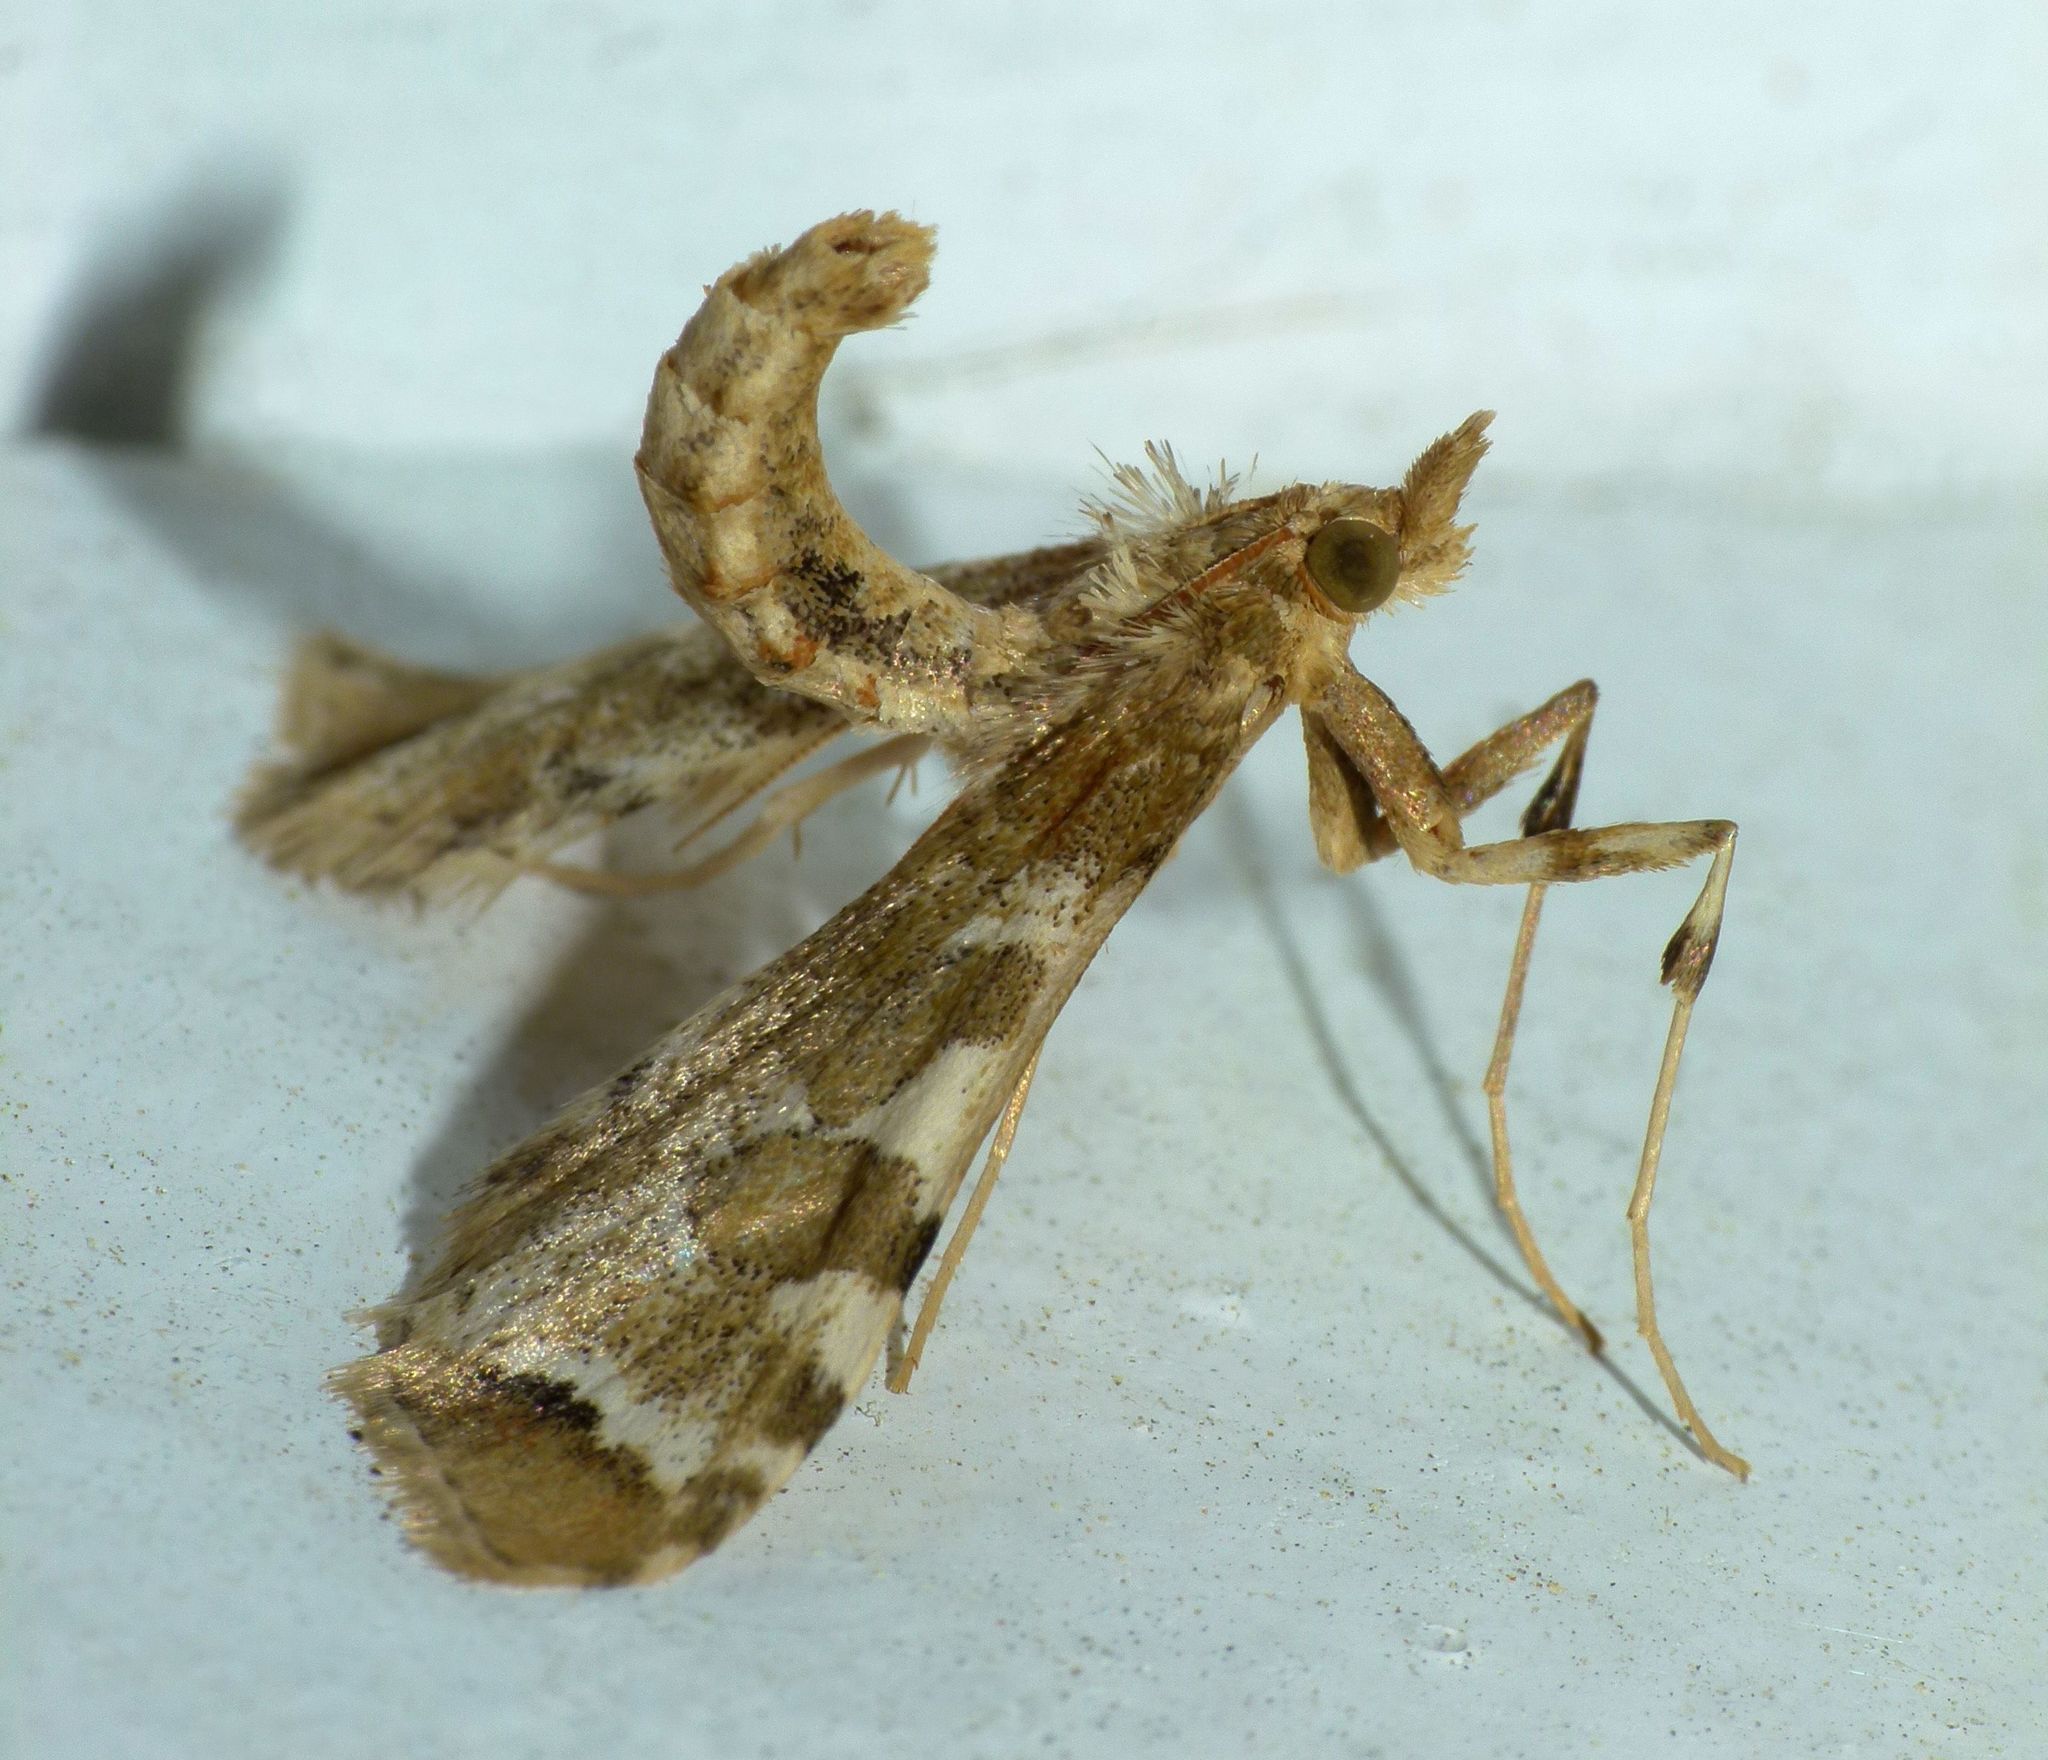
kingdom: Animalia
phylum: Arthropoda
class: Insecta
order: Lepidoptera
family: Crambidae
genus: Sceliodes
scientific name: Sceliodes cordalis
